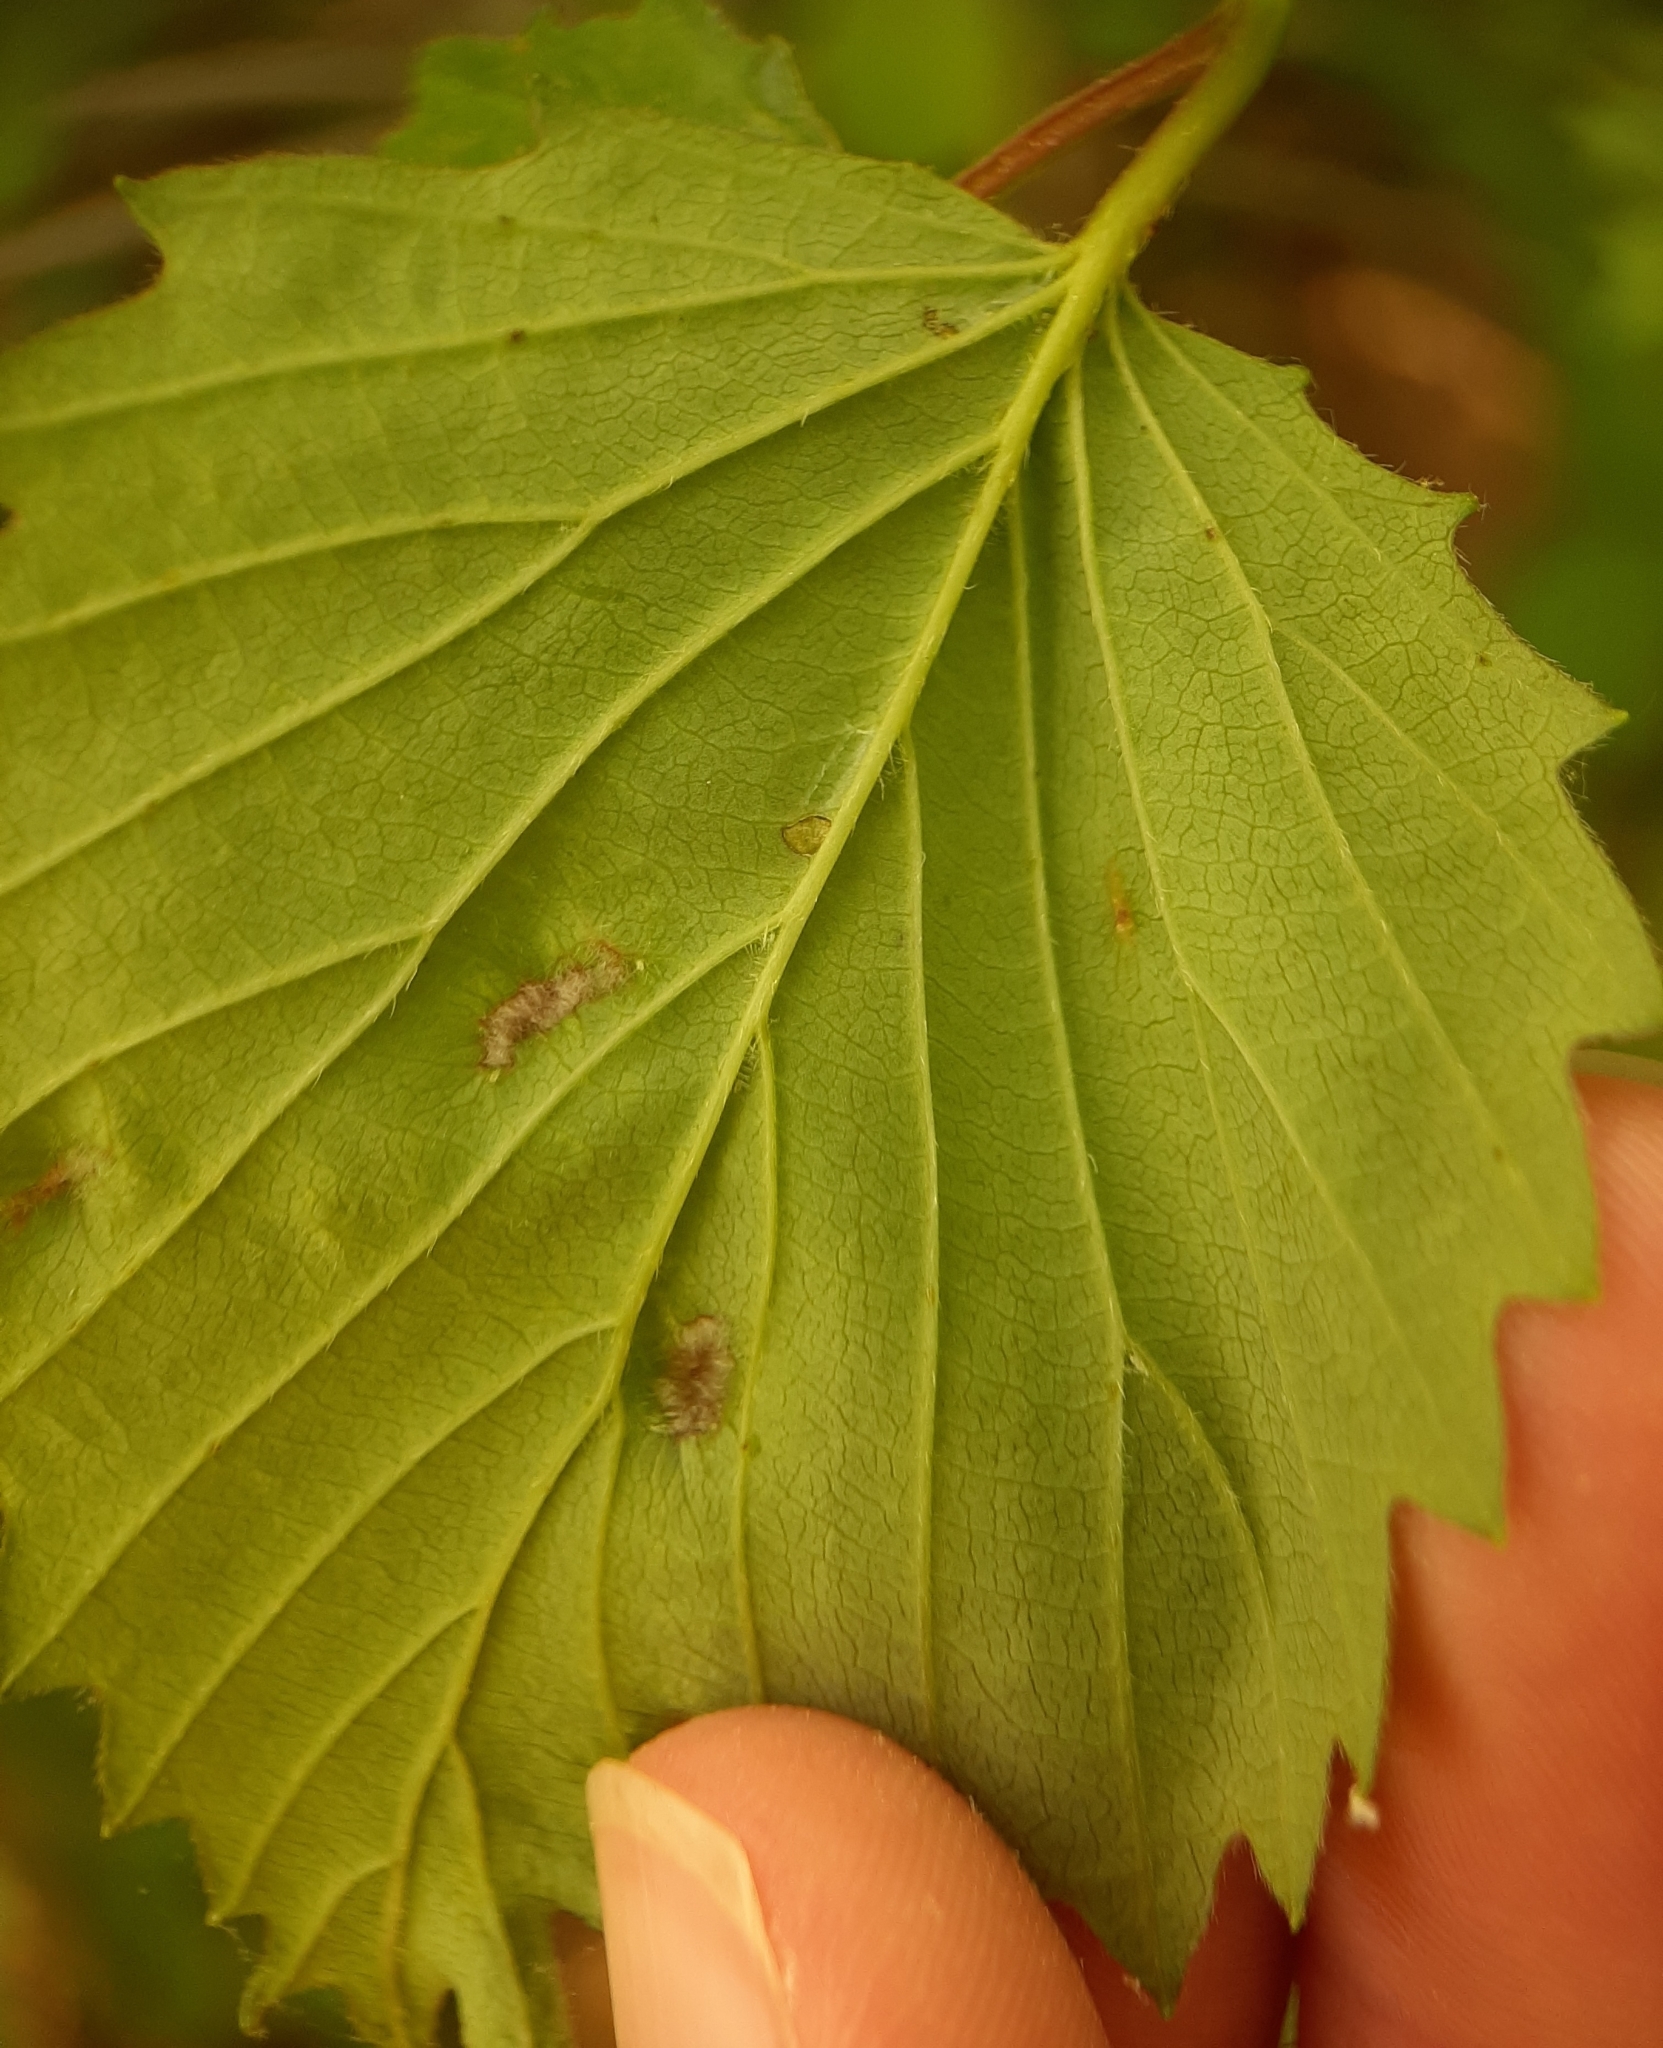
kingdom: Animalia
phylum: Arthropoda
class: Arachnida
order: Trombidiformes
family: Eriophyidae
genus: Eriophyes
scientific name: Eriophyes
